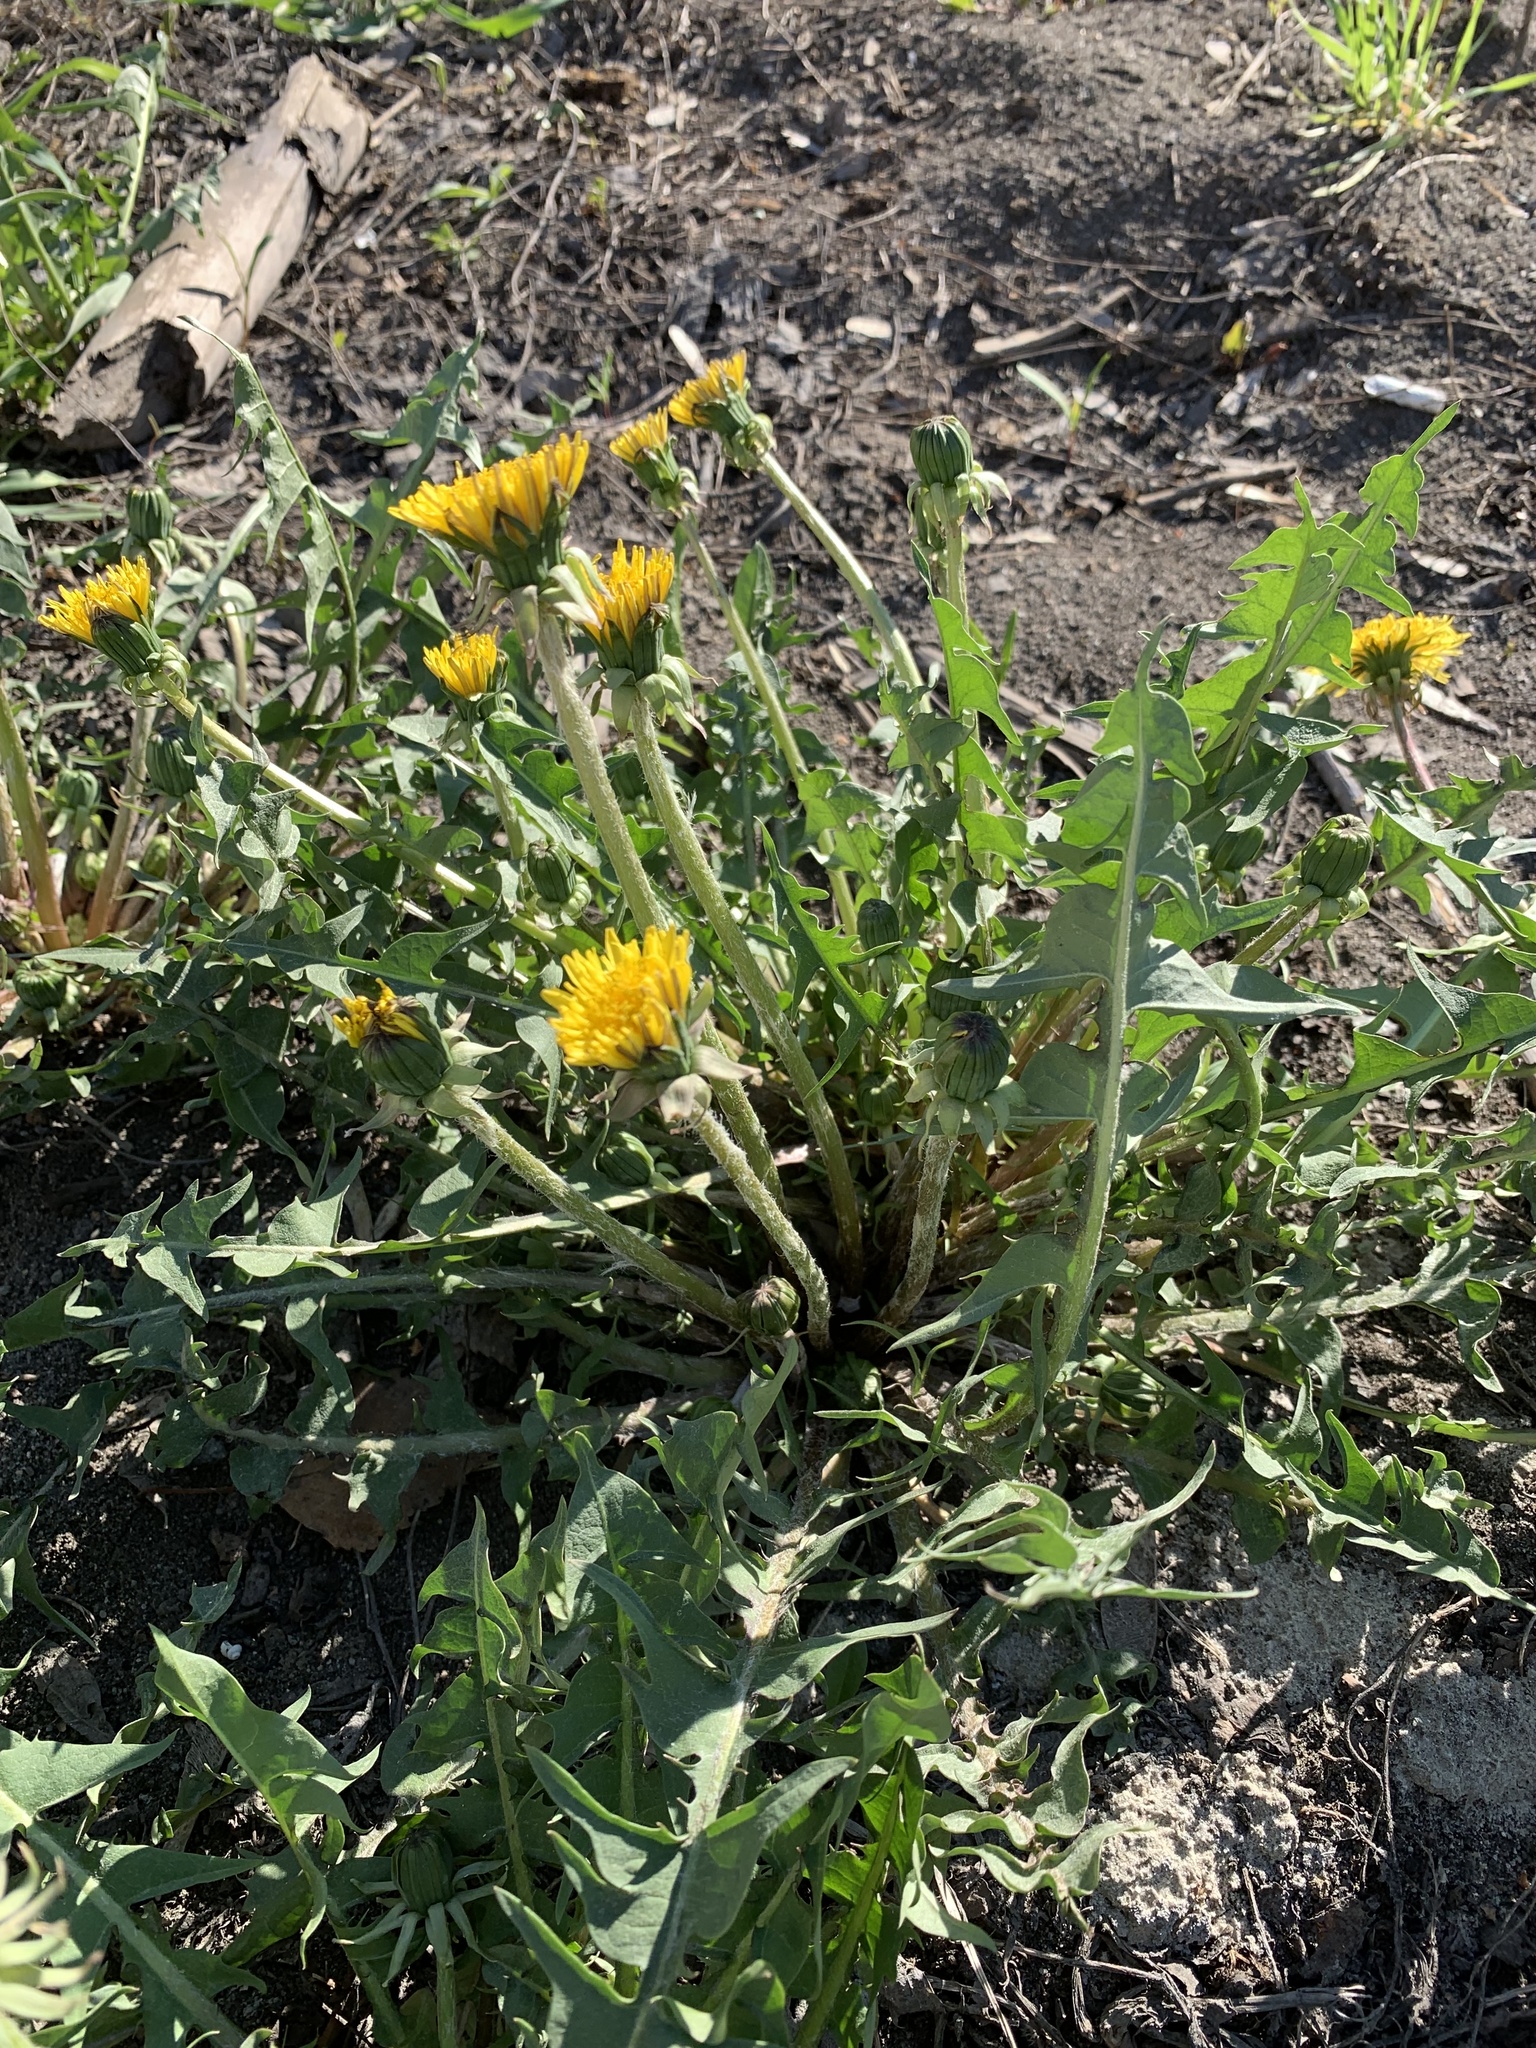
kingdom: Plantae
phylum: Tracheophyta
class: Magnoliopsida
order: Asterales
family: Asteraceae
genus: Taraxacum
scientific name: Taraxacum officinale
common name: Common dandelion
